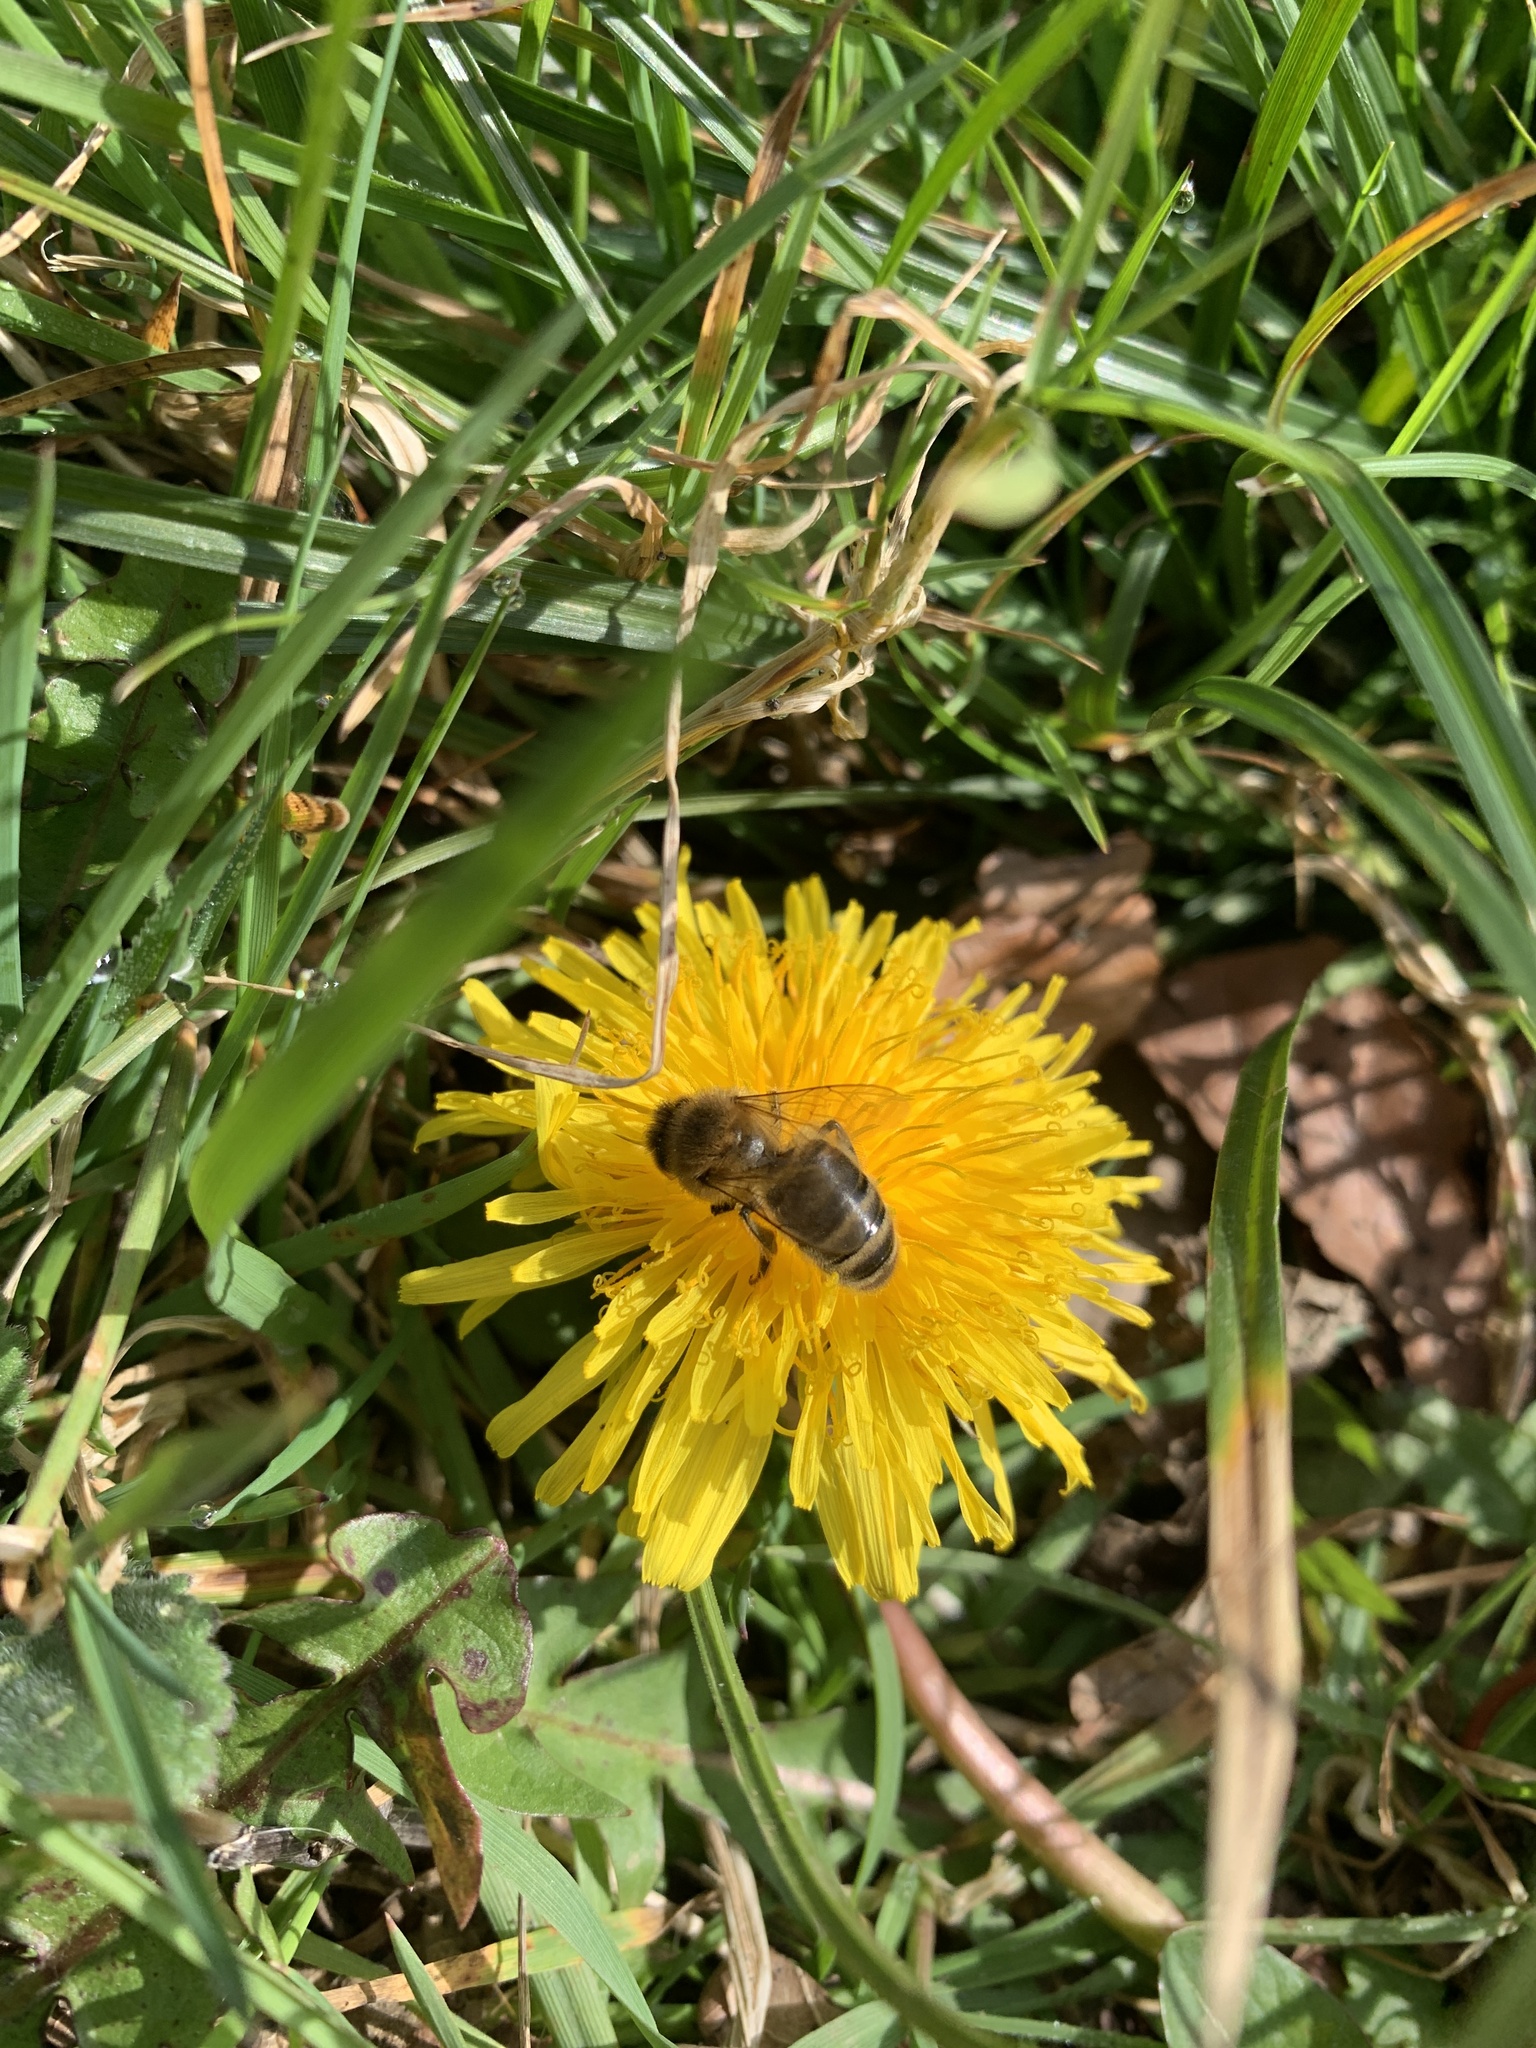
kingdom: Animalia
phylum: Arthropoda
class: Insecta
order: Hymenoptera
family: Apidae
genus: Apis
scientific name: Apis mellifera
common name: Honey bee
